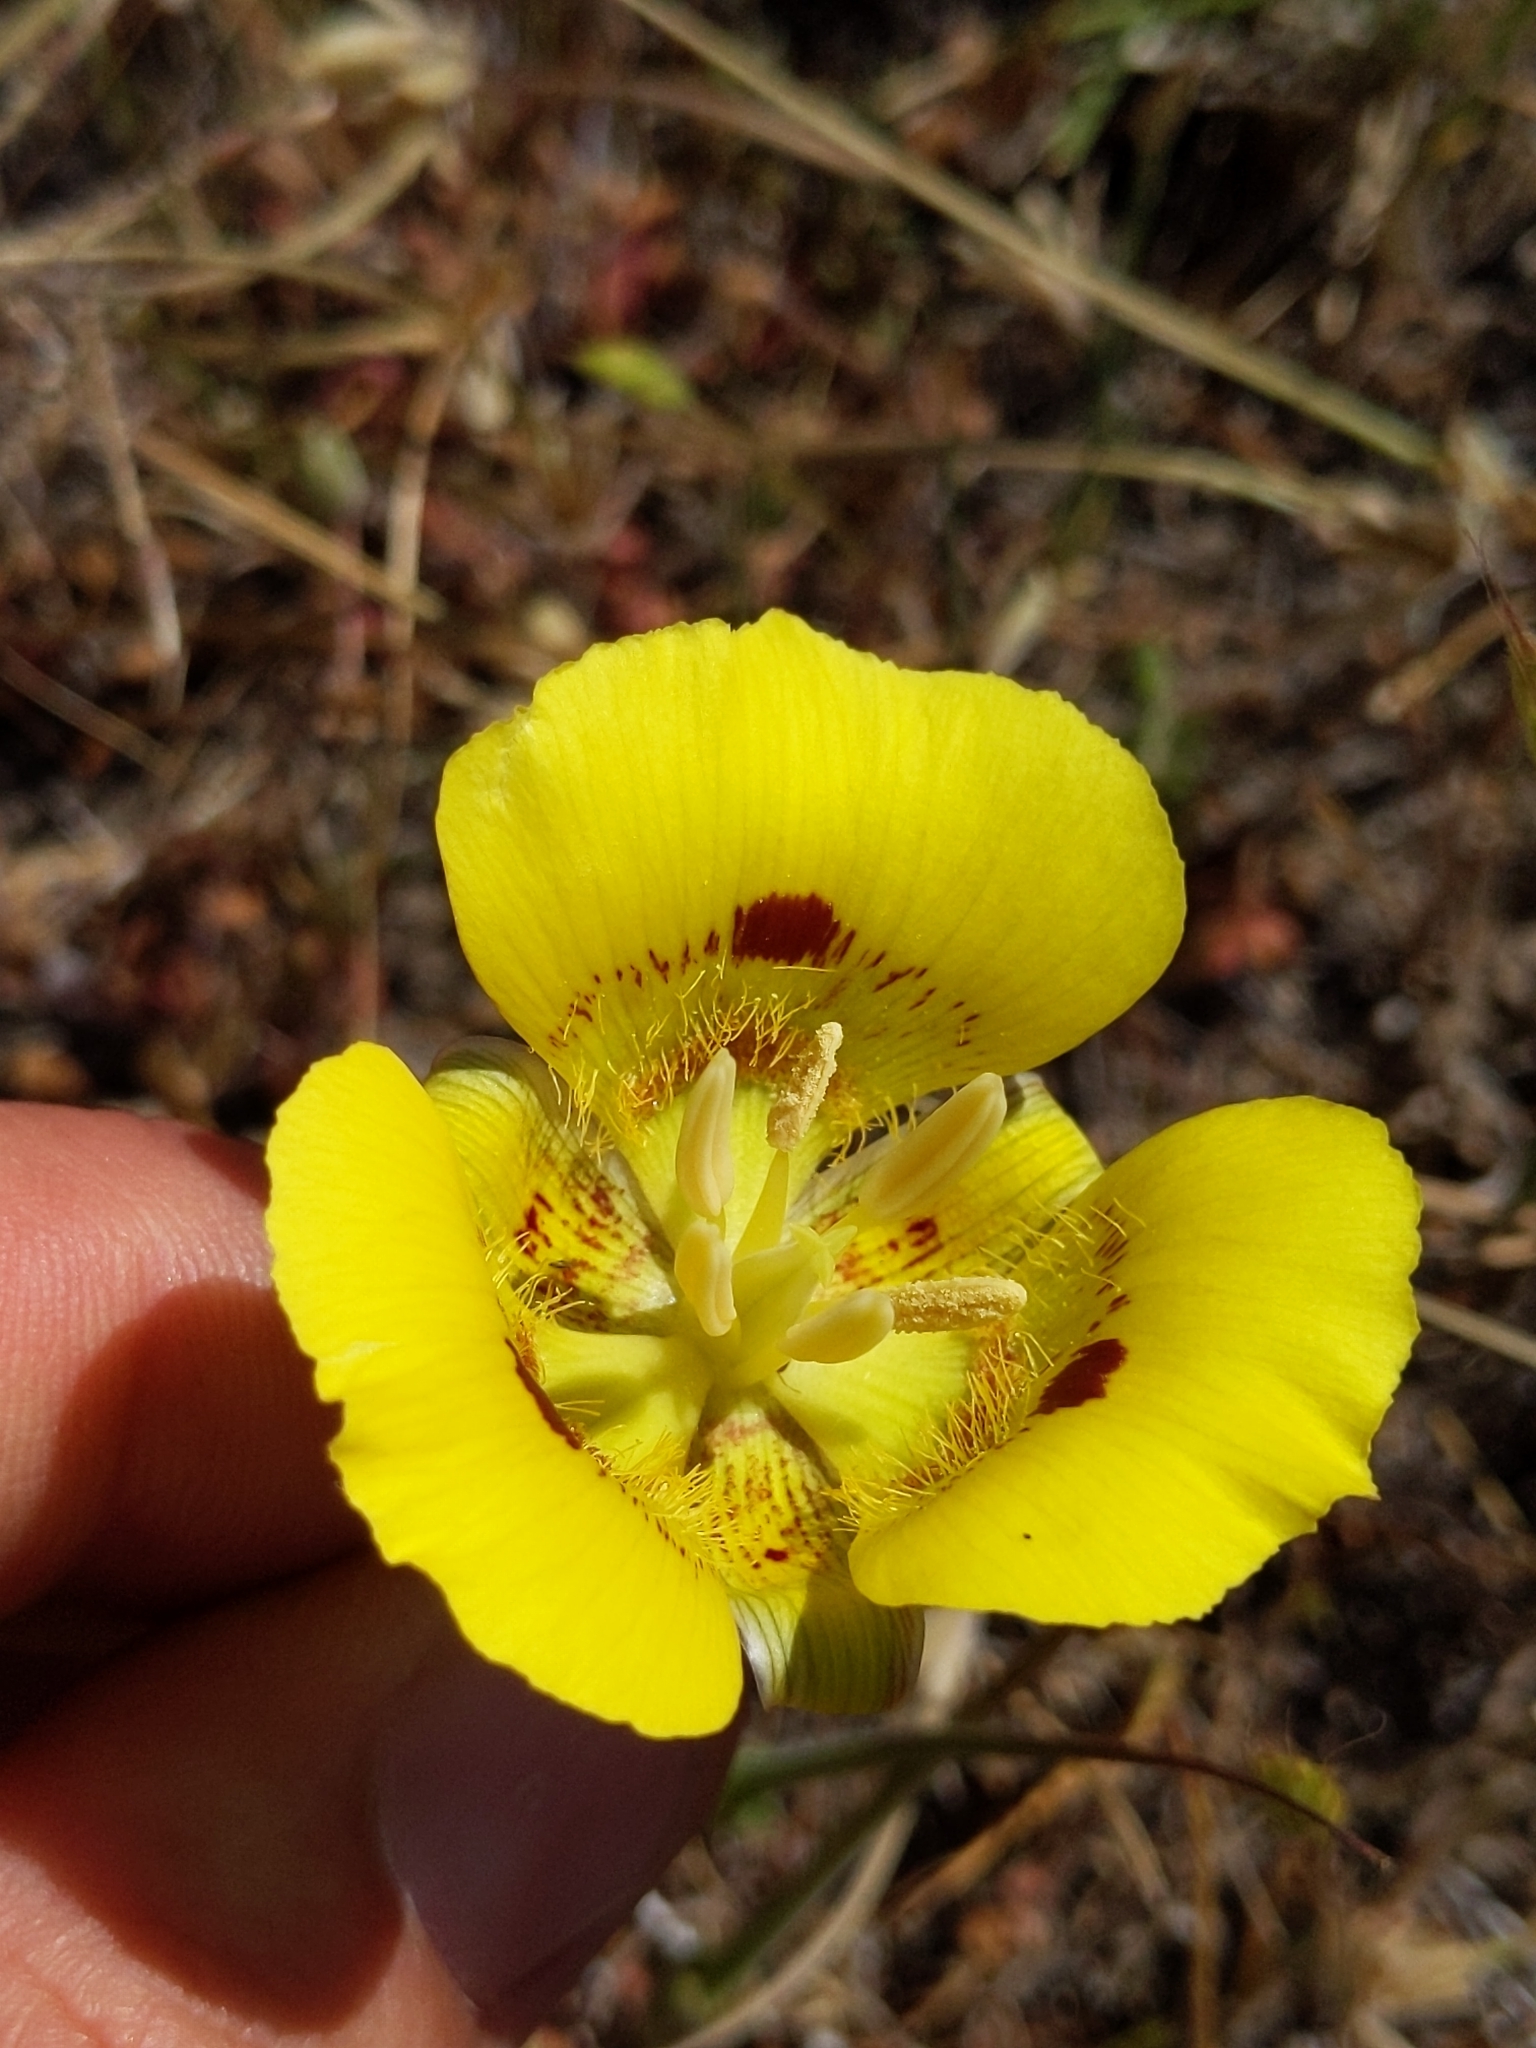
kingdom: Plantae
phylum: Tracheophyta
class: Liliopsida
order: Liliales
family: Liliaceae
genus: Calochortus
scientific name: Calochortus luteus
